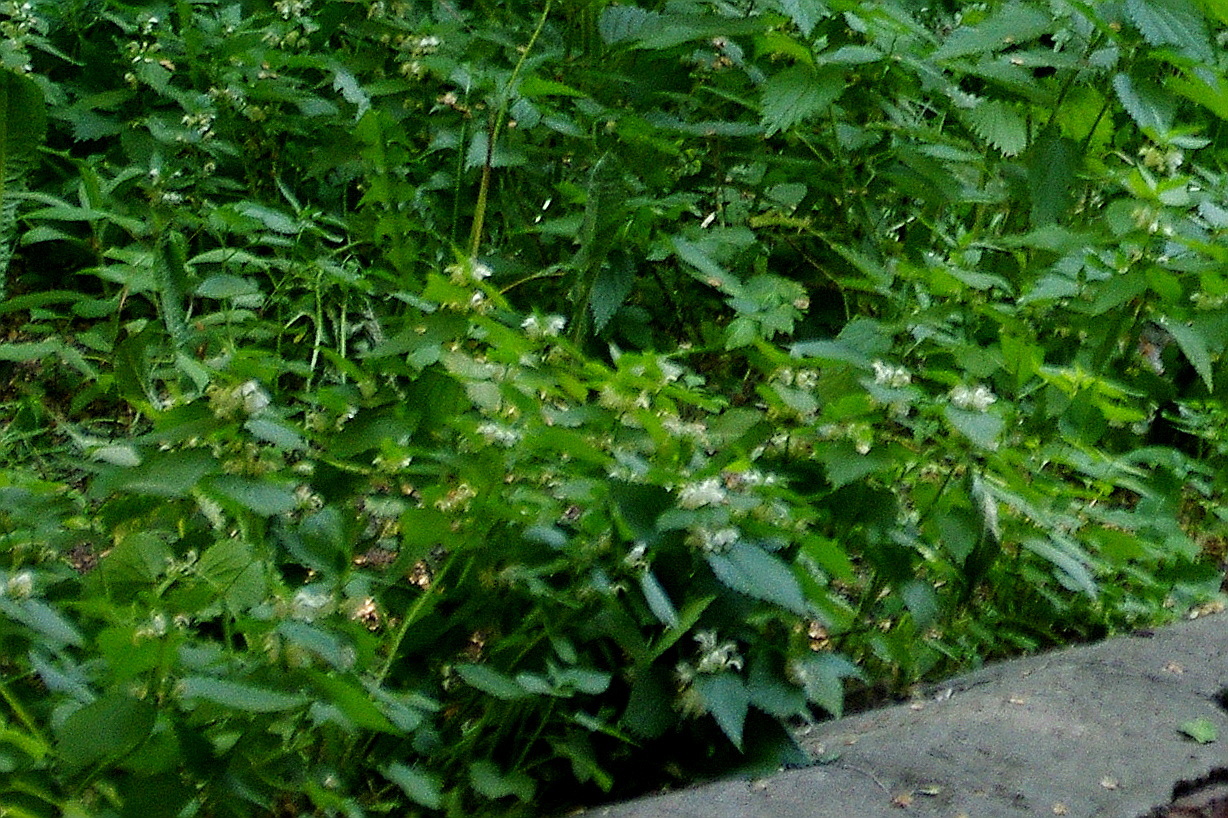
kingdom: Plantae
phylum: Tracheophyta
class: Magnoliopsida
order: Lamiales
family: Lamiaceae
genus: Lamium
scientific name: Lamium album
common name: White dead-nettle
